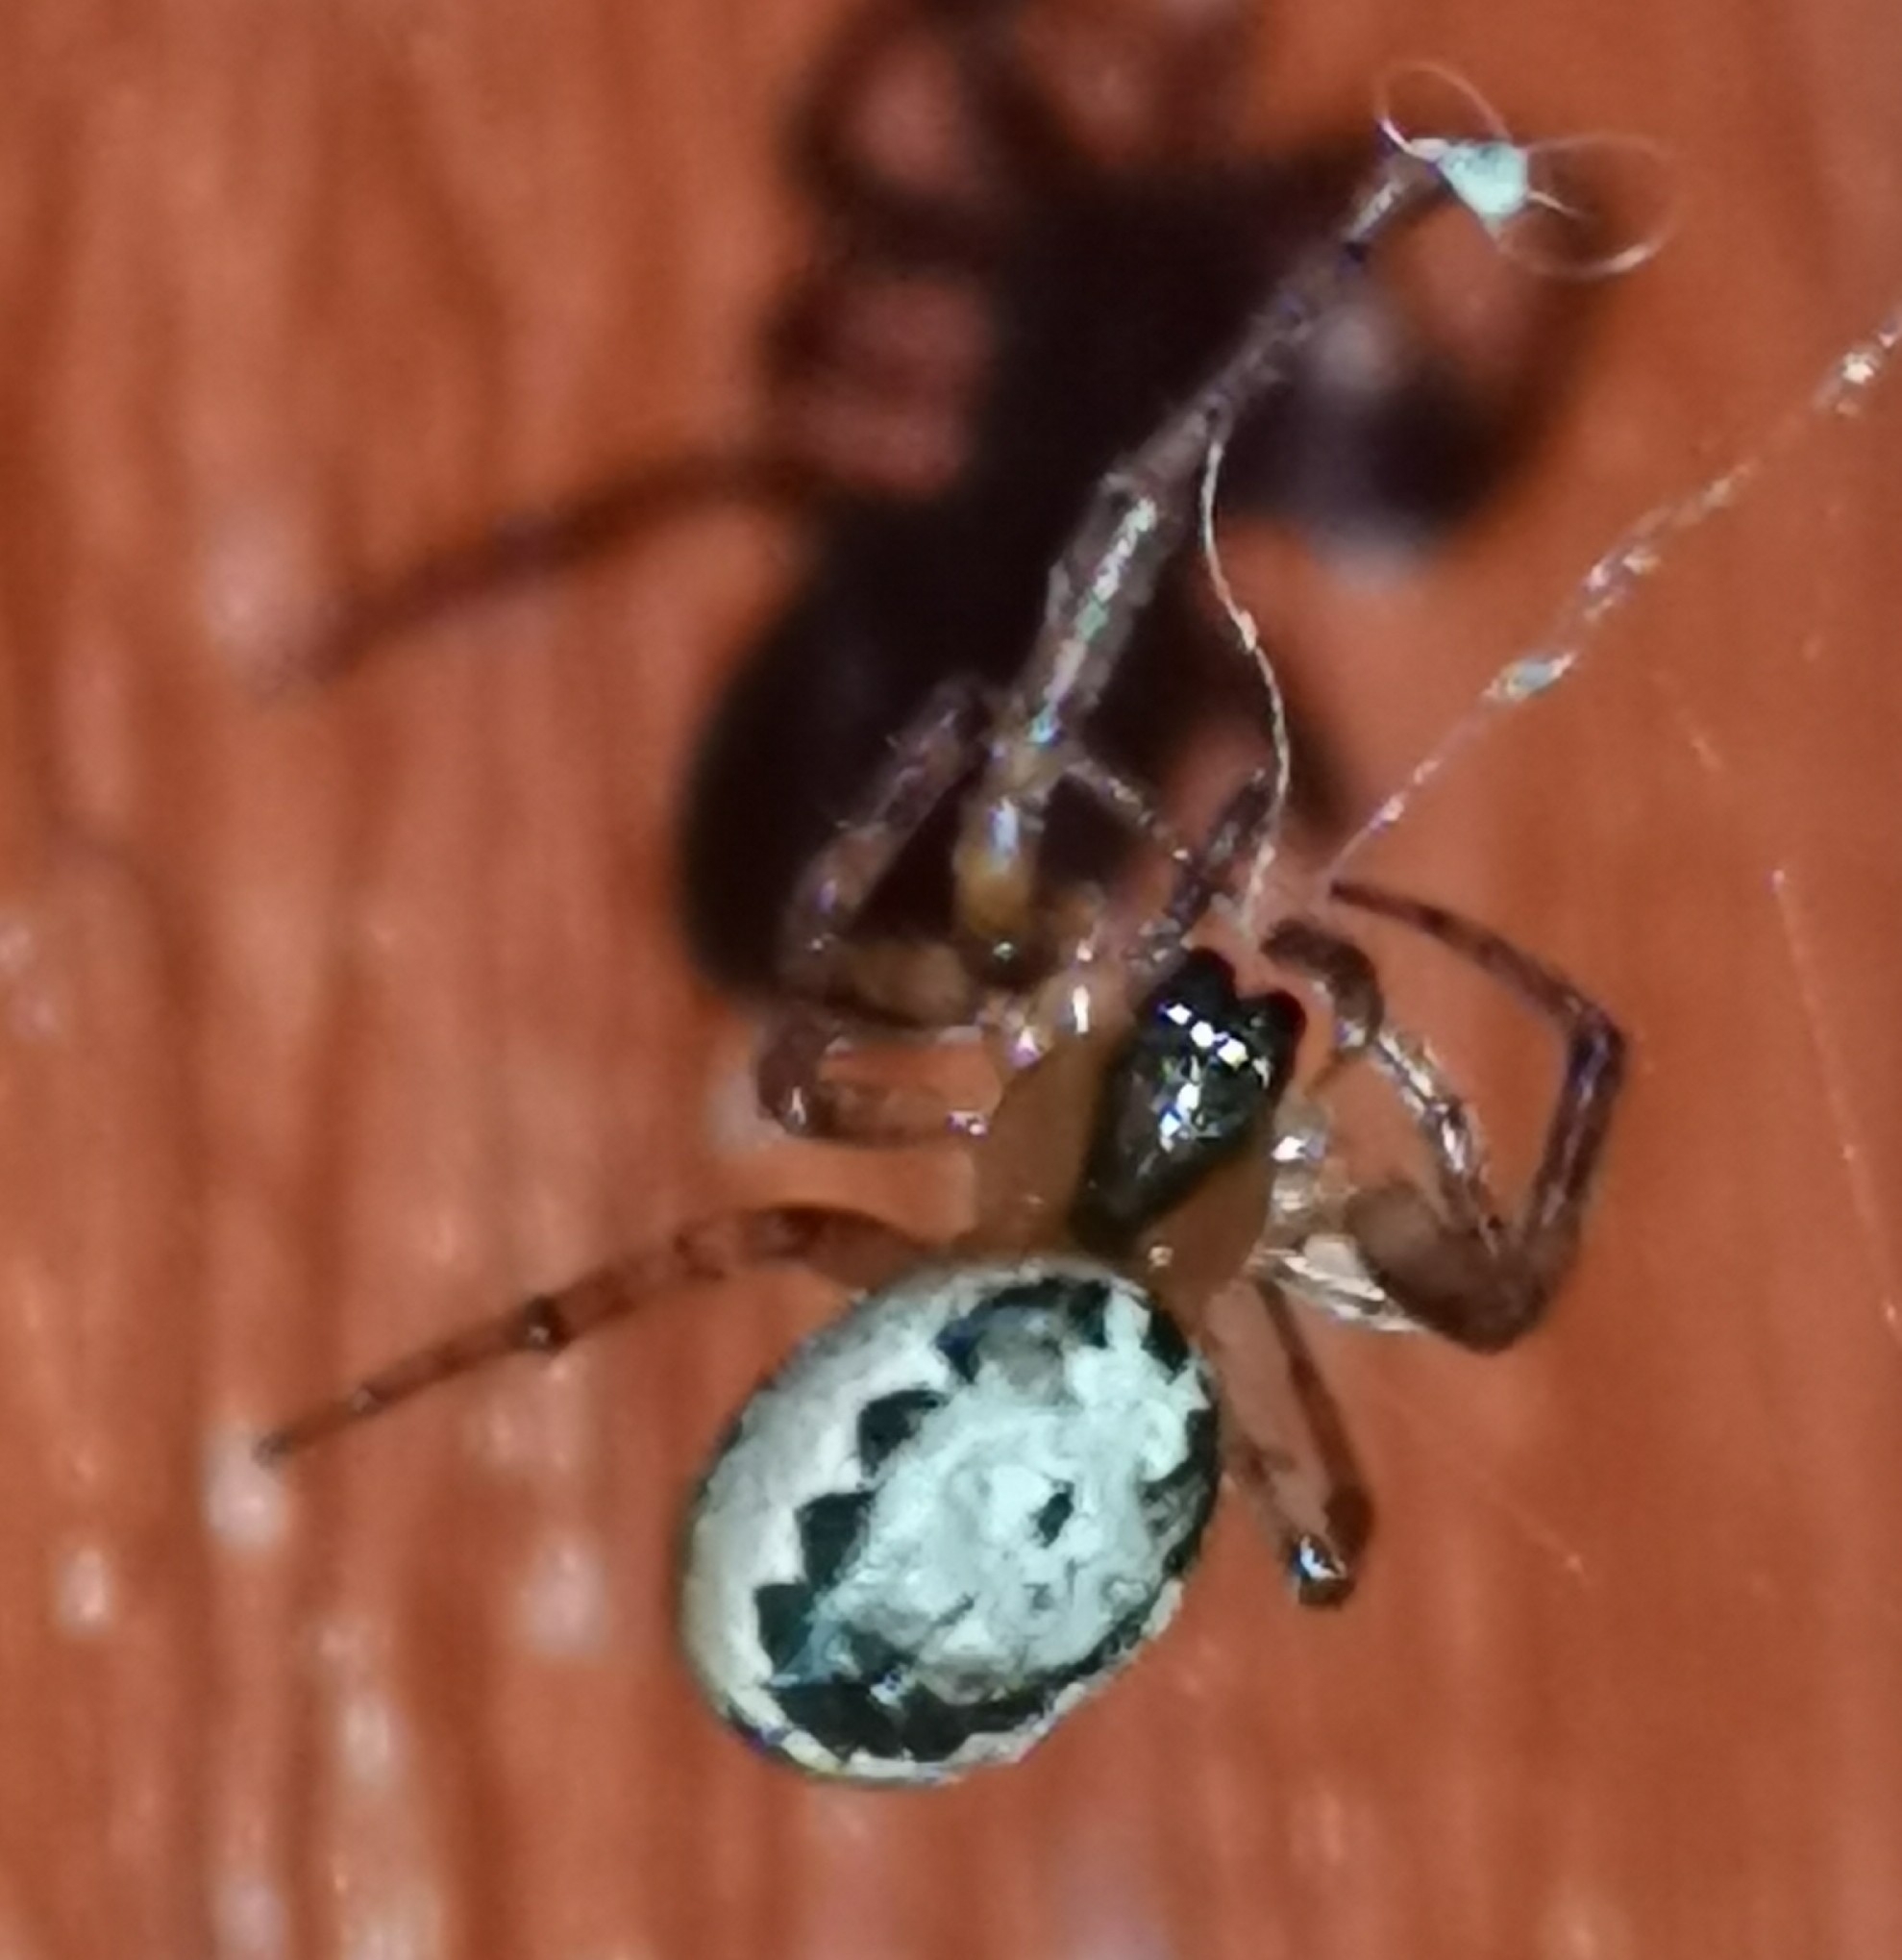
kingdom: Animalia
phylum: Arthropoda
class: Arachnida
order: Araneae
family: Araneidae
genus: Leviellus
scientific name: Leviellus stroemi
